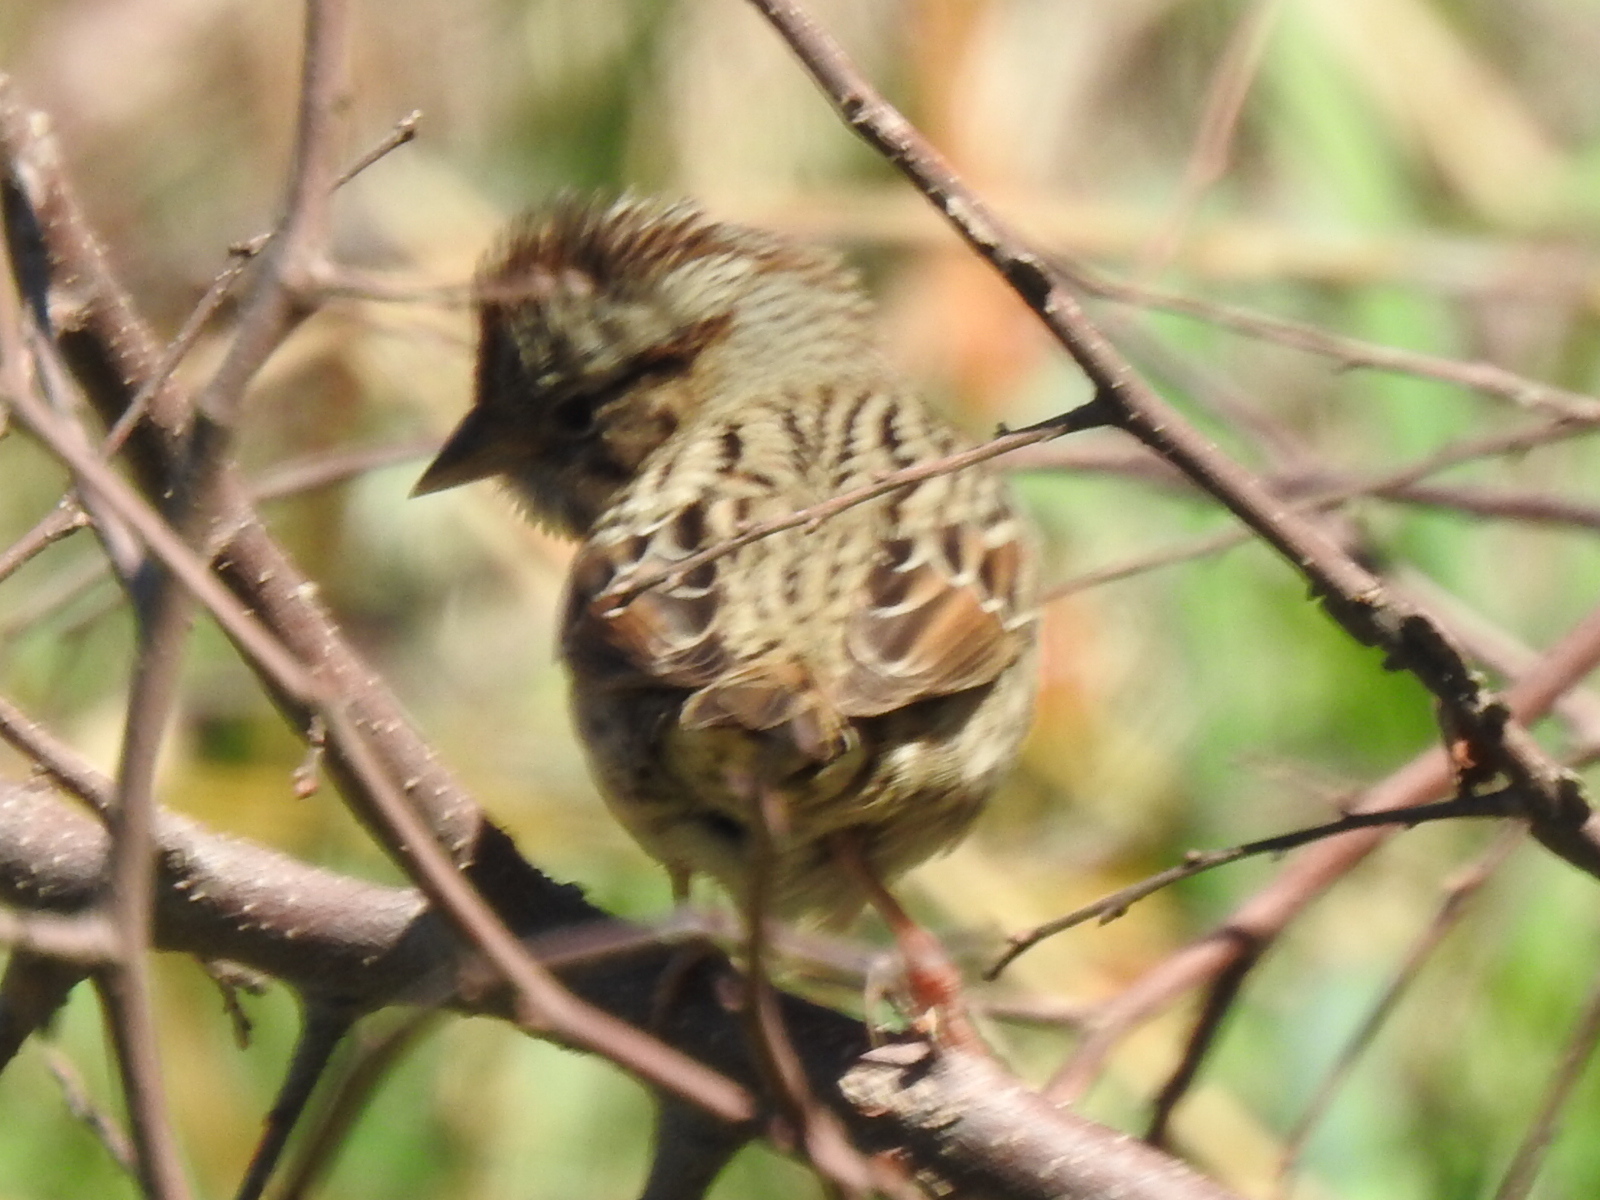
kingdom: Animalia
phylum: Chordata
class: Aves
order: Passeriformes
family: Passerellidae
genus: Melospiza
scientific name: Melospiza lincolnii
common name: Lincoln's sparrow
